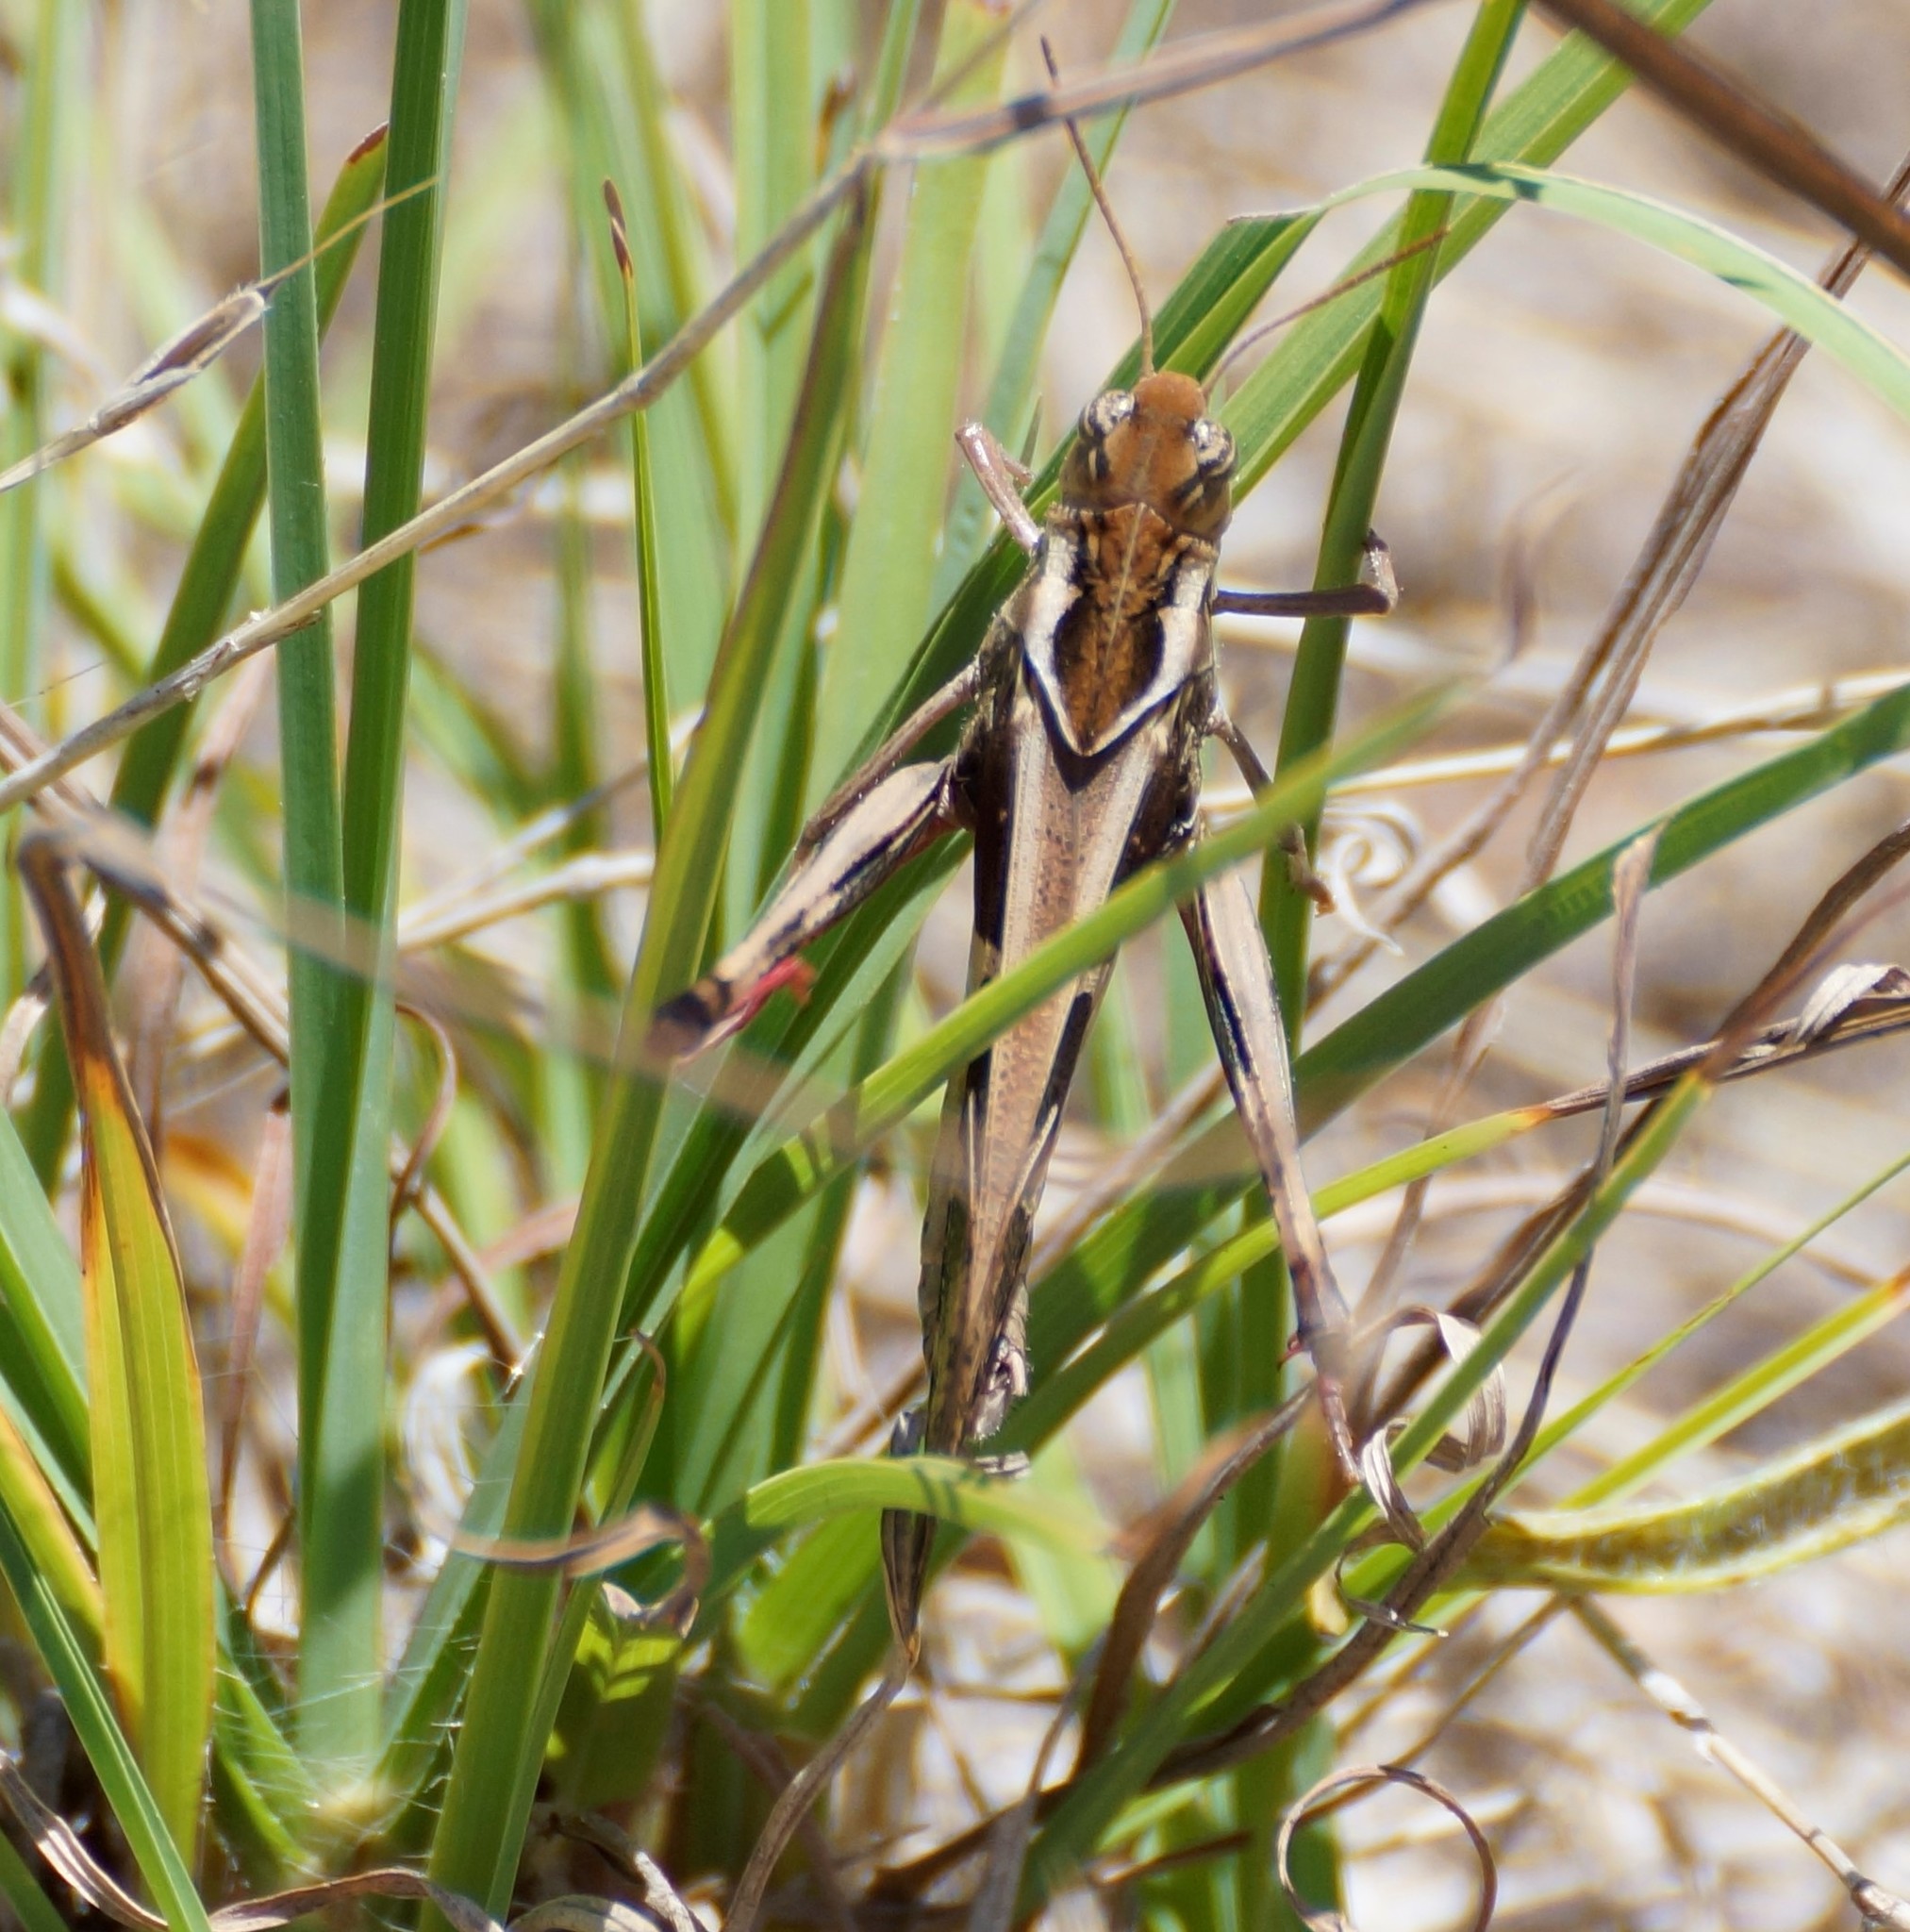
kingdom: Animalia
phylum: Arthropoda
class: Insecta
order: Orthoptera
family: Acrididae
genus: Gastrimargus
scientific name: Gastrimargus musicus
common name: Yellow-winged locust
